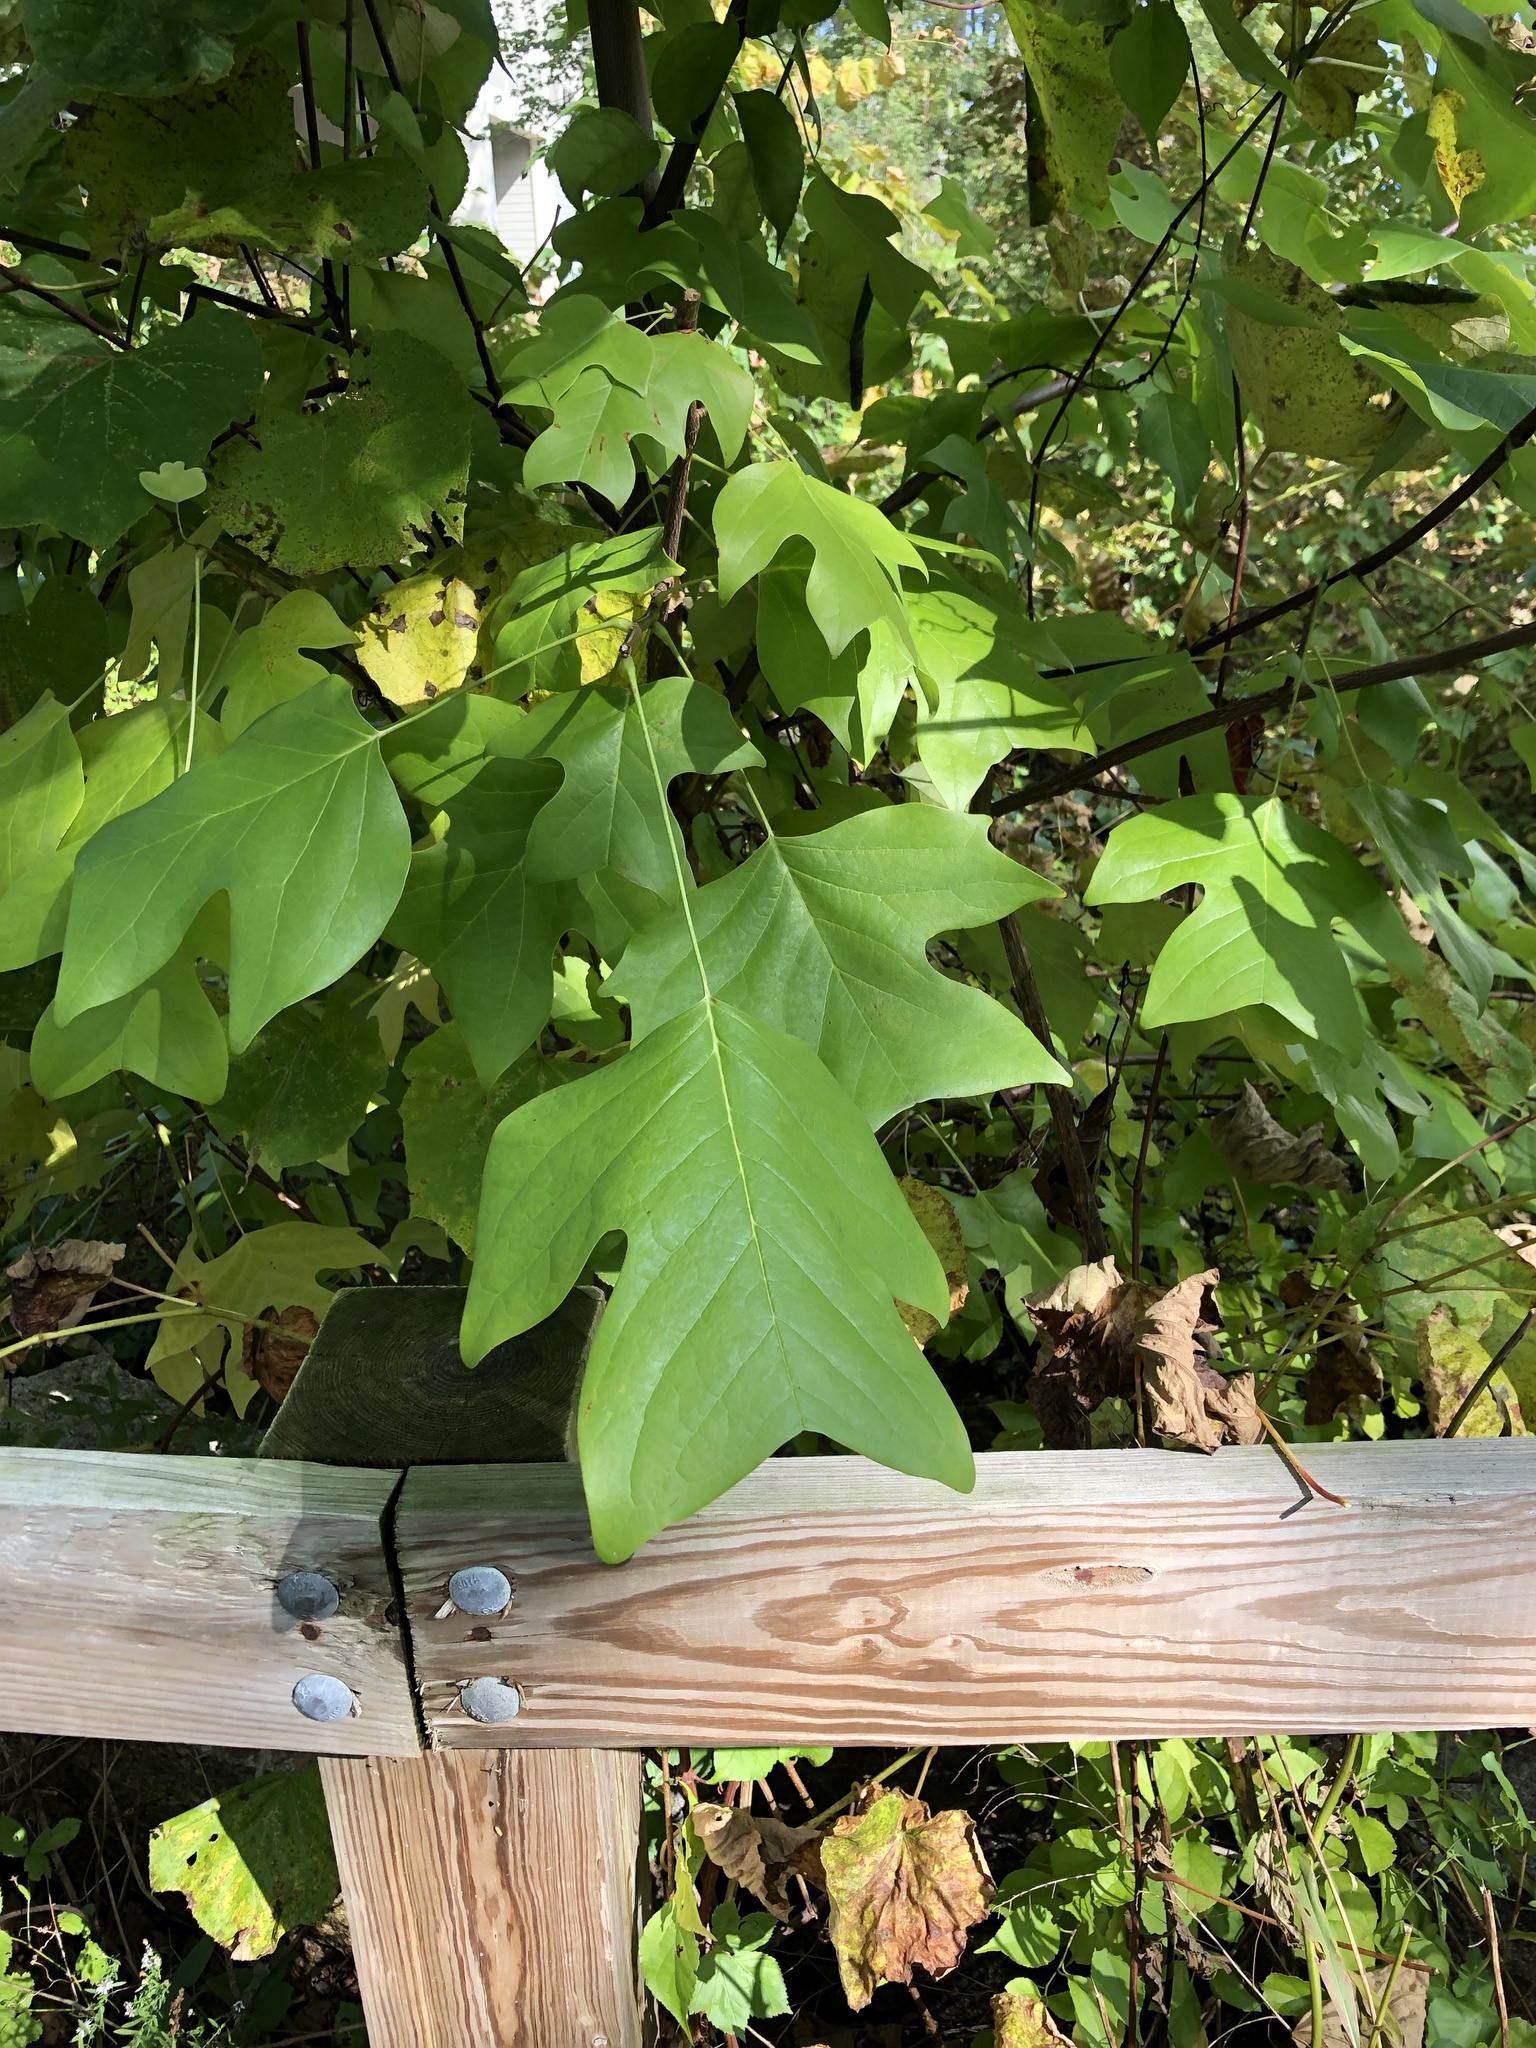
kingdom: Plantae
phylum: Tracheophyta
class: Magnoliopsida
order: Magnoliales
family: Magnoliaceae
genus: Liriodendron
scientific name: Liriodendron tulipifera
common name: Tulip tree
